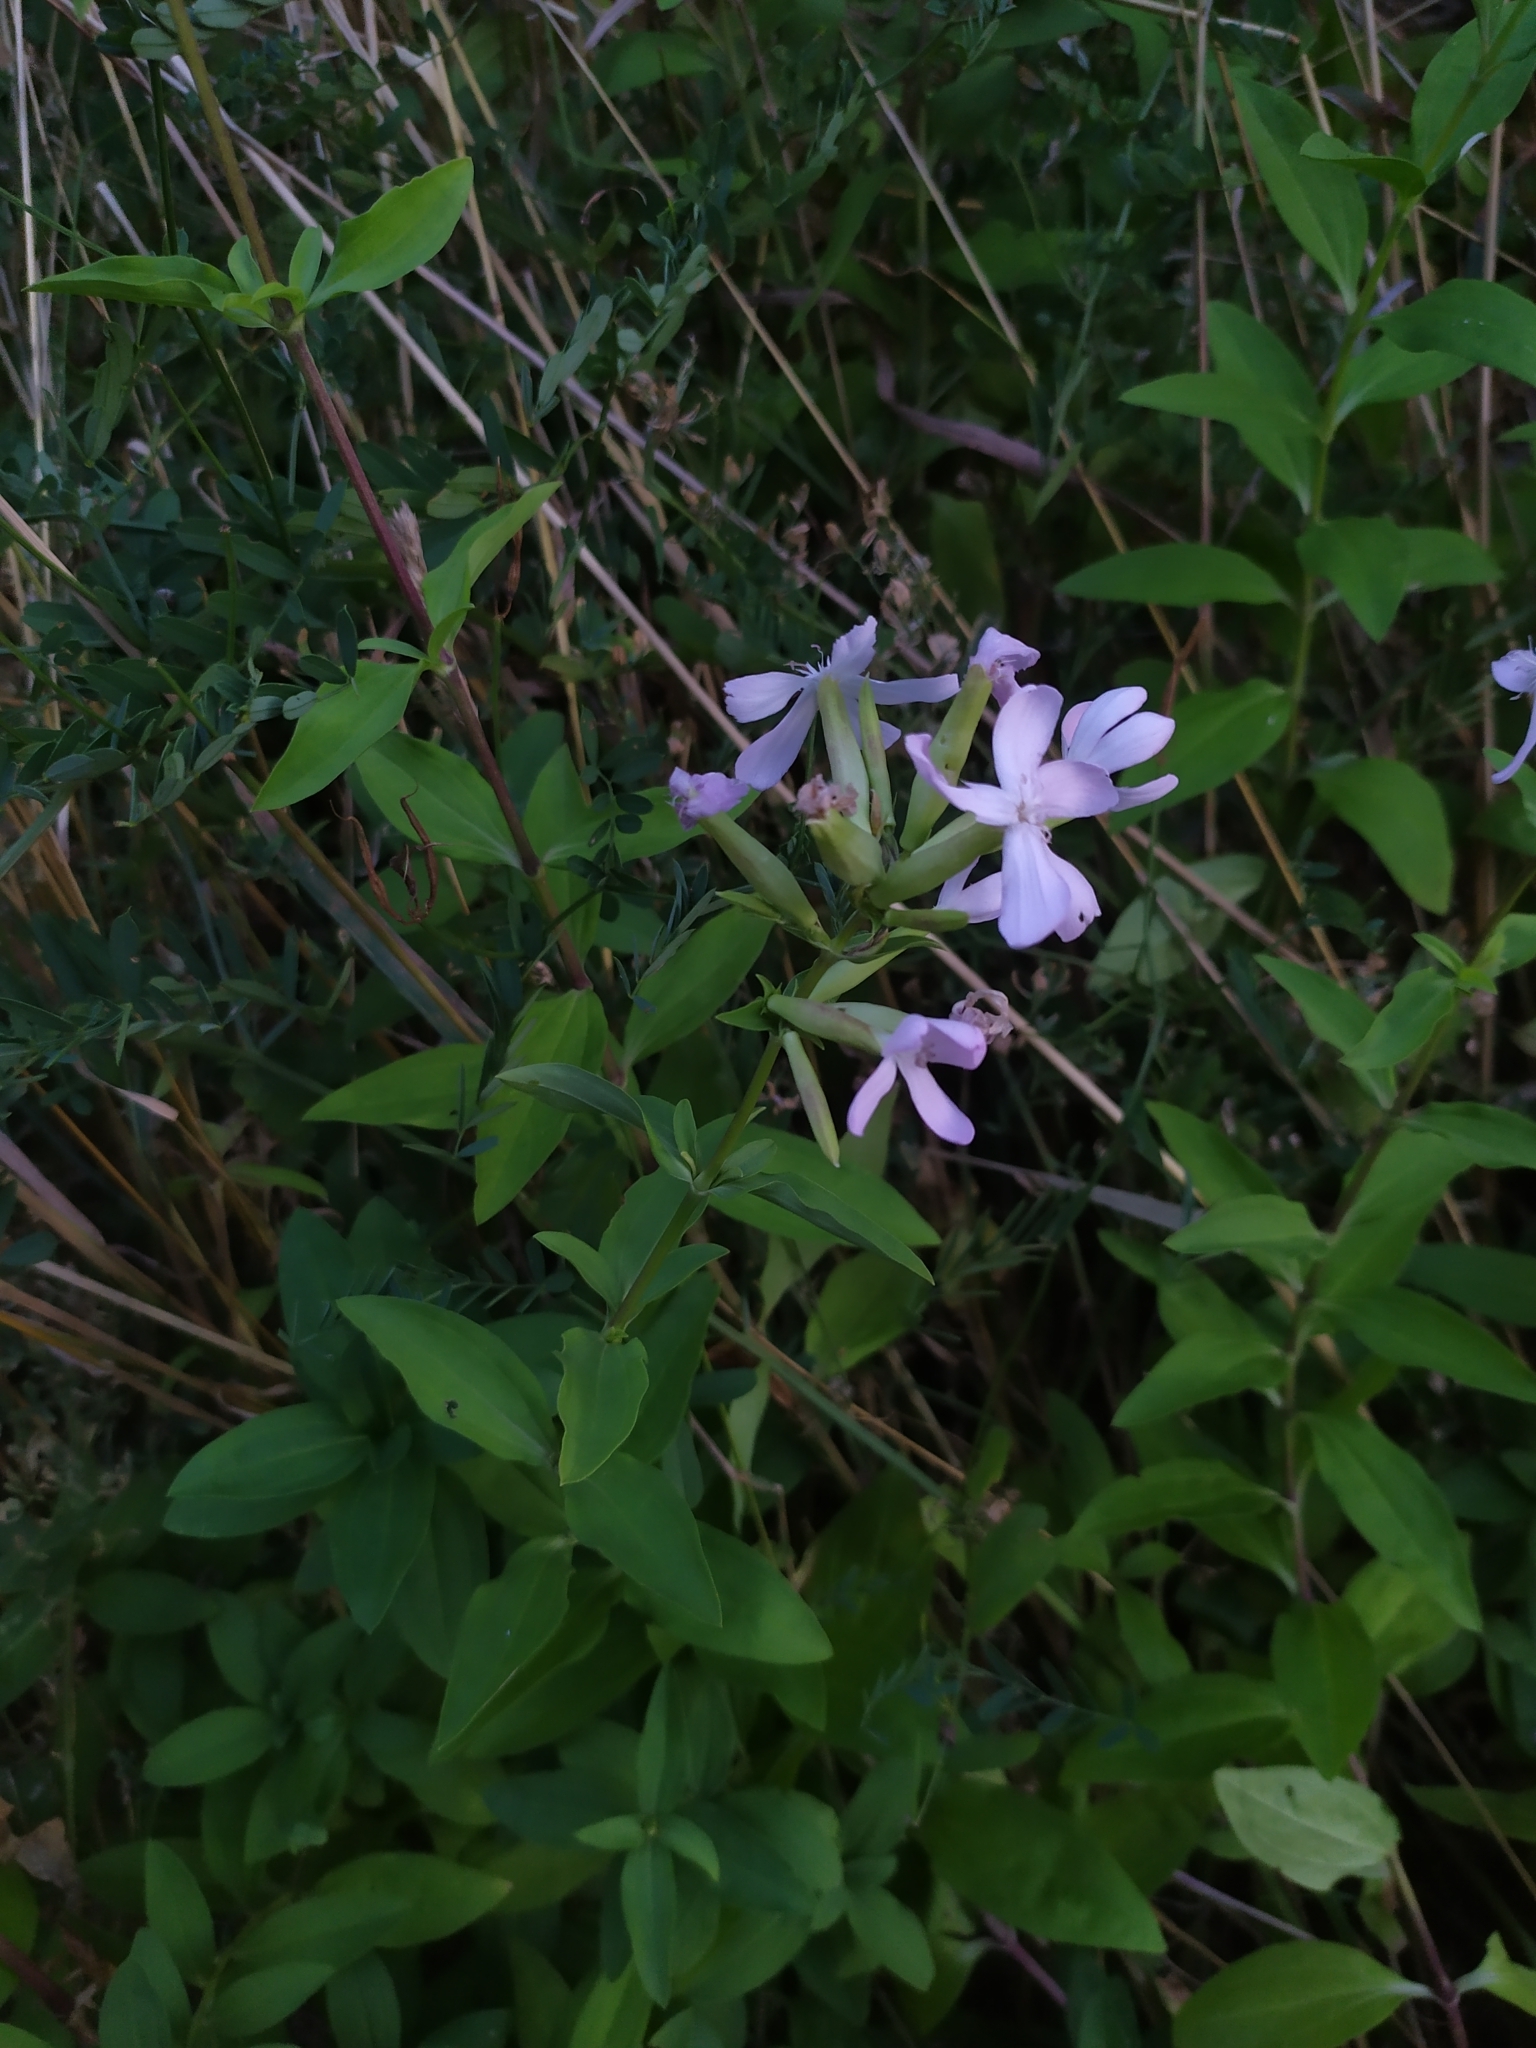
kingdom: Plantae
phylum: Tracheophyta
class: Magnoliopsida
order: Caryophyllales
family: Caryophyllaceae
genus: Saponaria
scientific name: Saponaria officinalis
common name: Soapwort
